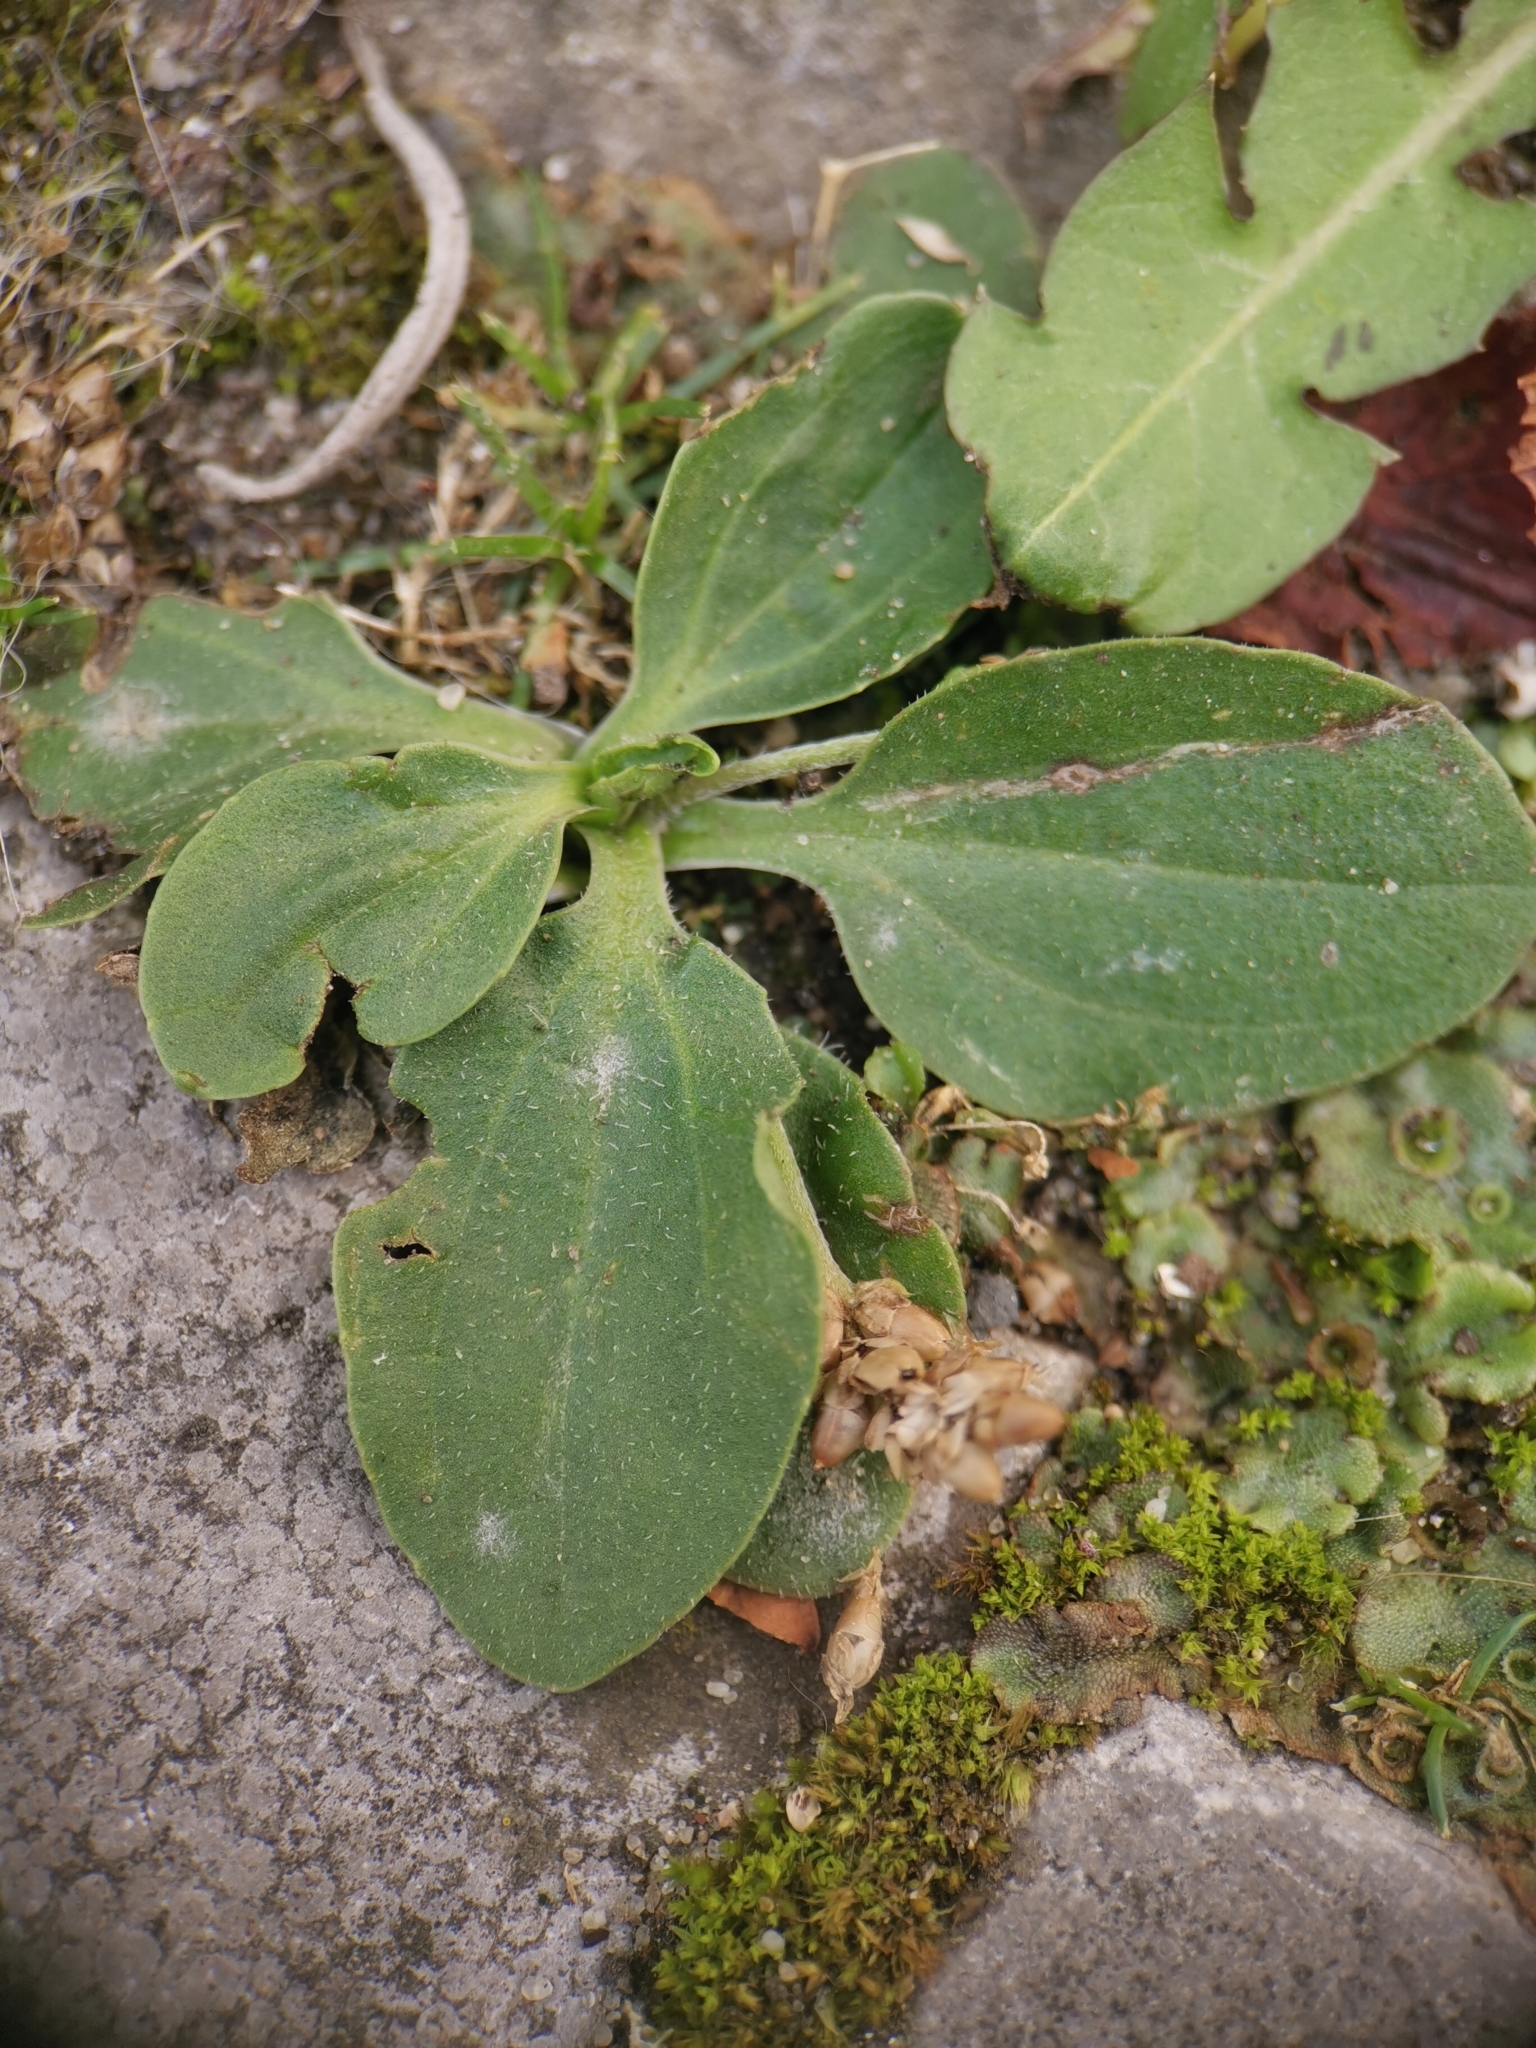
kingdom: Plantae
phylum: Tracheophyta
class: Magnoliopsida
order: Lamiales
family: Plantaginaceae
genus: Plantago
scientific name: Plantago major
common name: Common plantain
